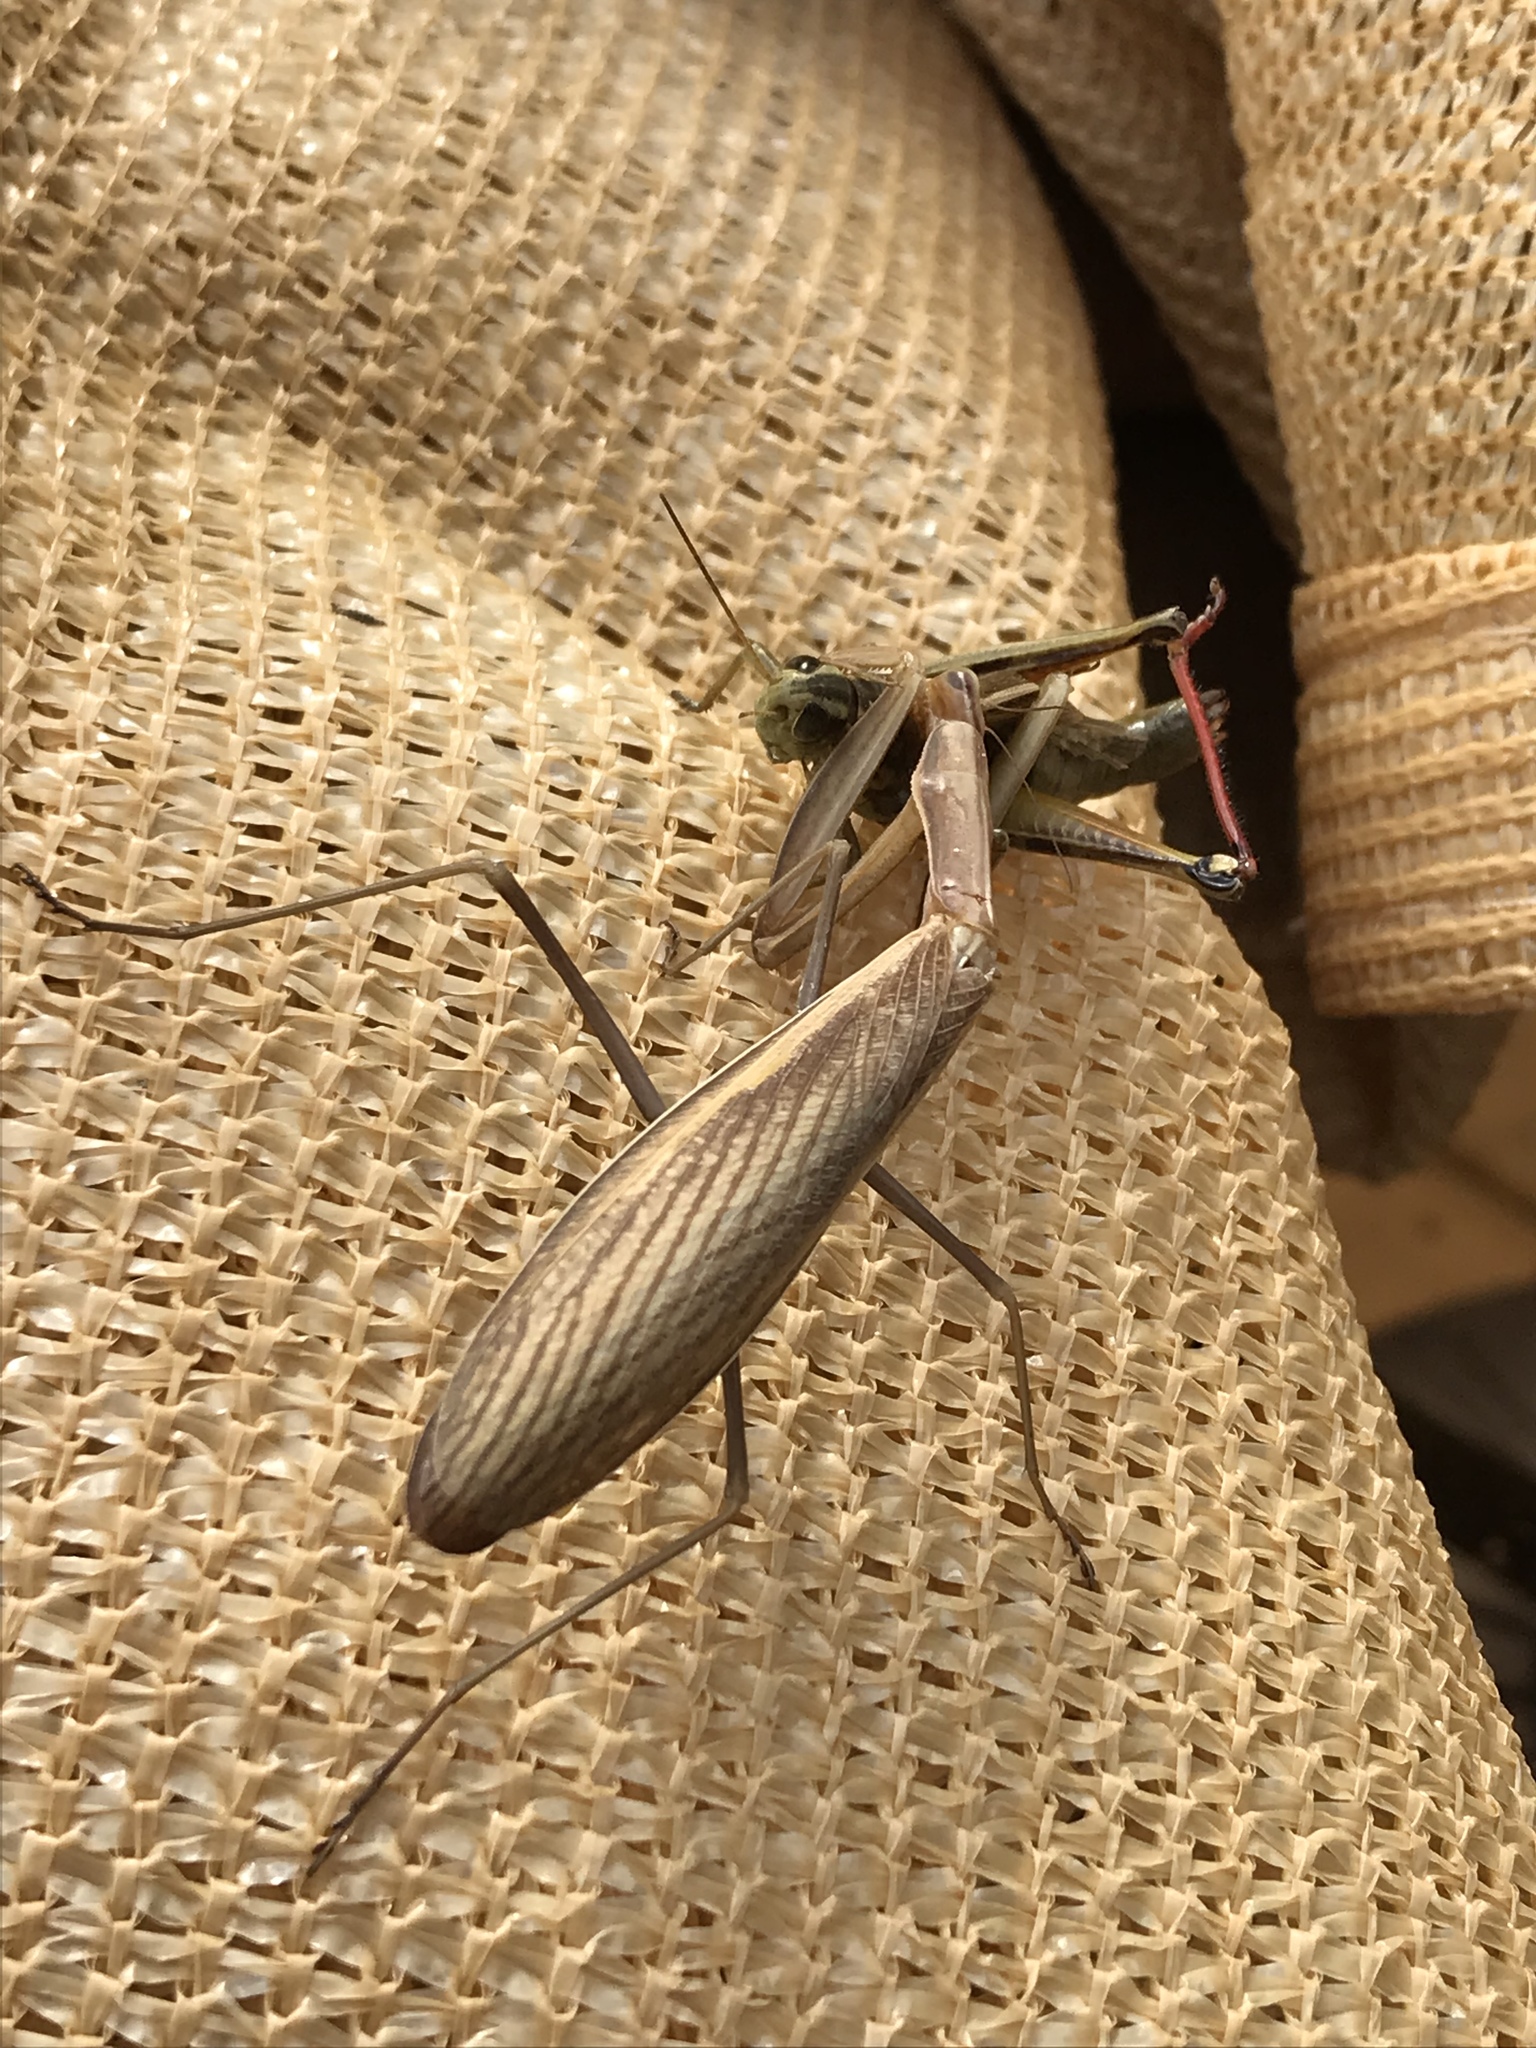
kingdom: Animalia
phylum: Arthropoda
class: Insecta
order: Mantodea
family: Mantidae
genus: Mantis
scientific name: Mantis religiosa
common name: Praying mantis
